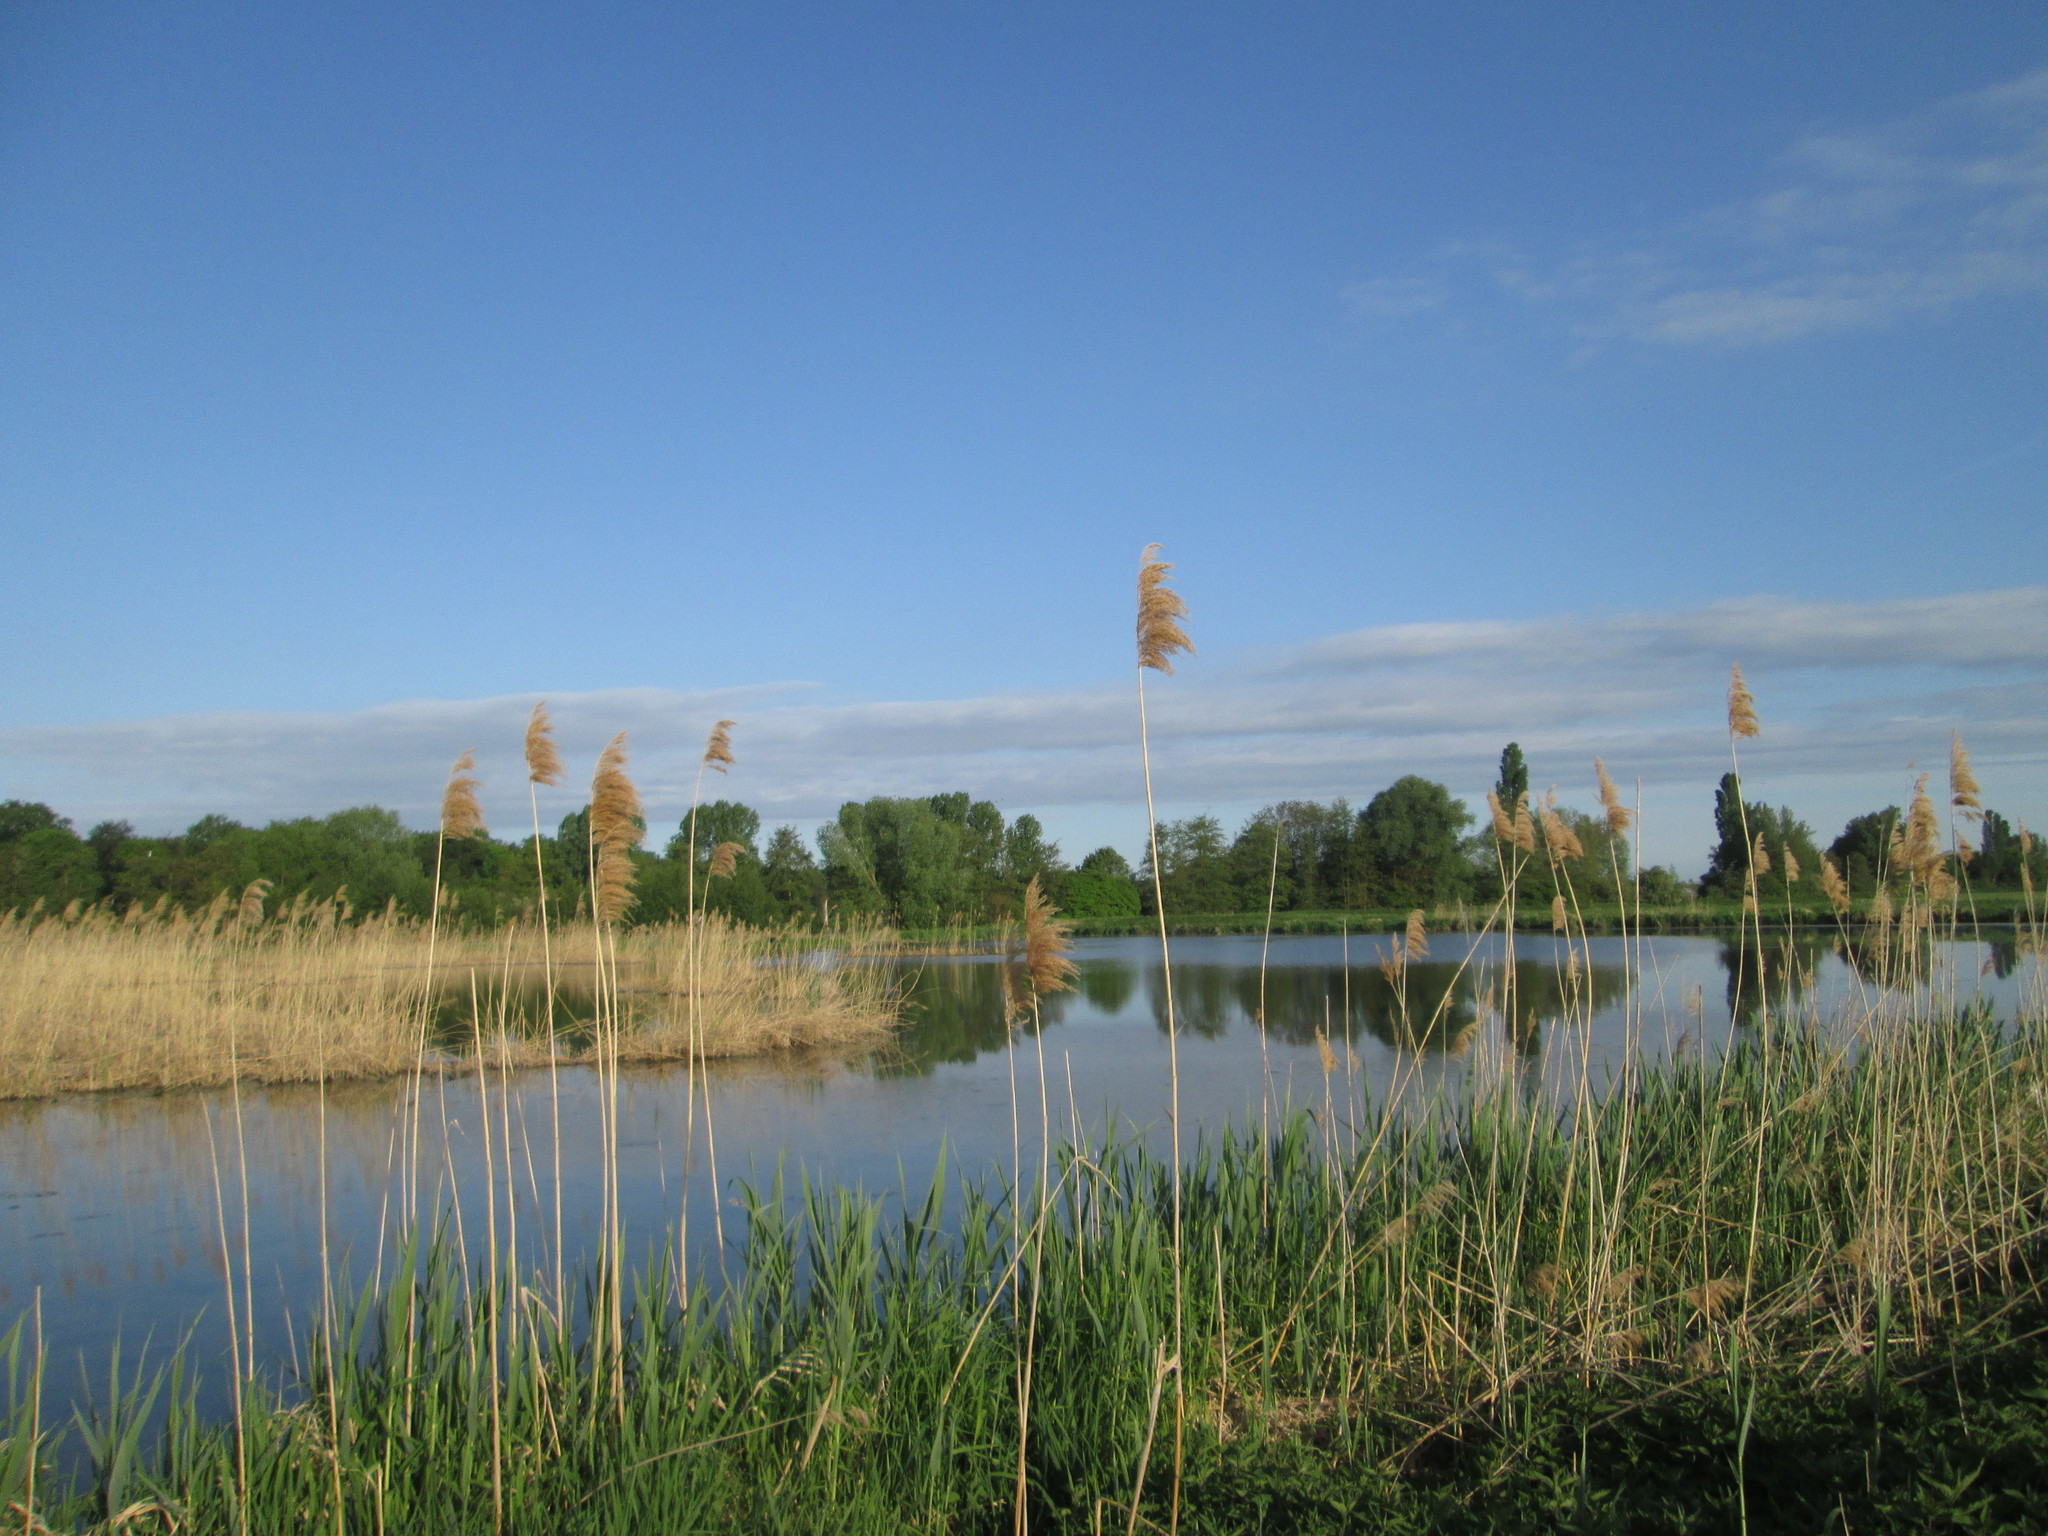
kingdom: Plantae
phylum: Tracheophyta
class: Liliopsida
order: Poales
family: Poaceae
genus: Phragmites
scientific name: Phragmites australis
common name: Common reed
